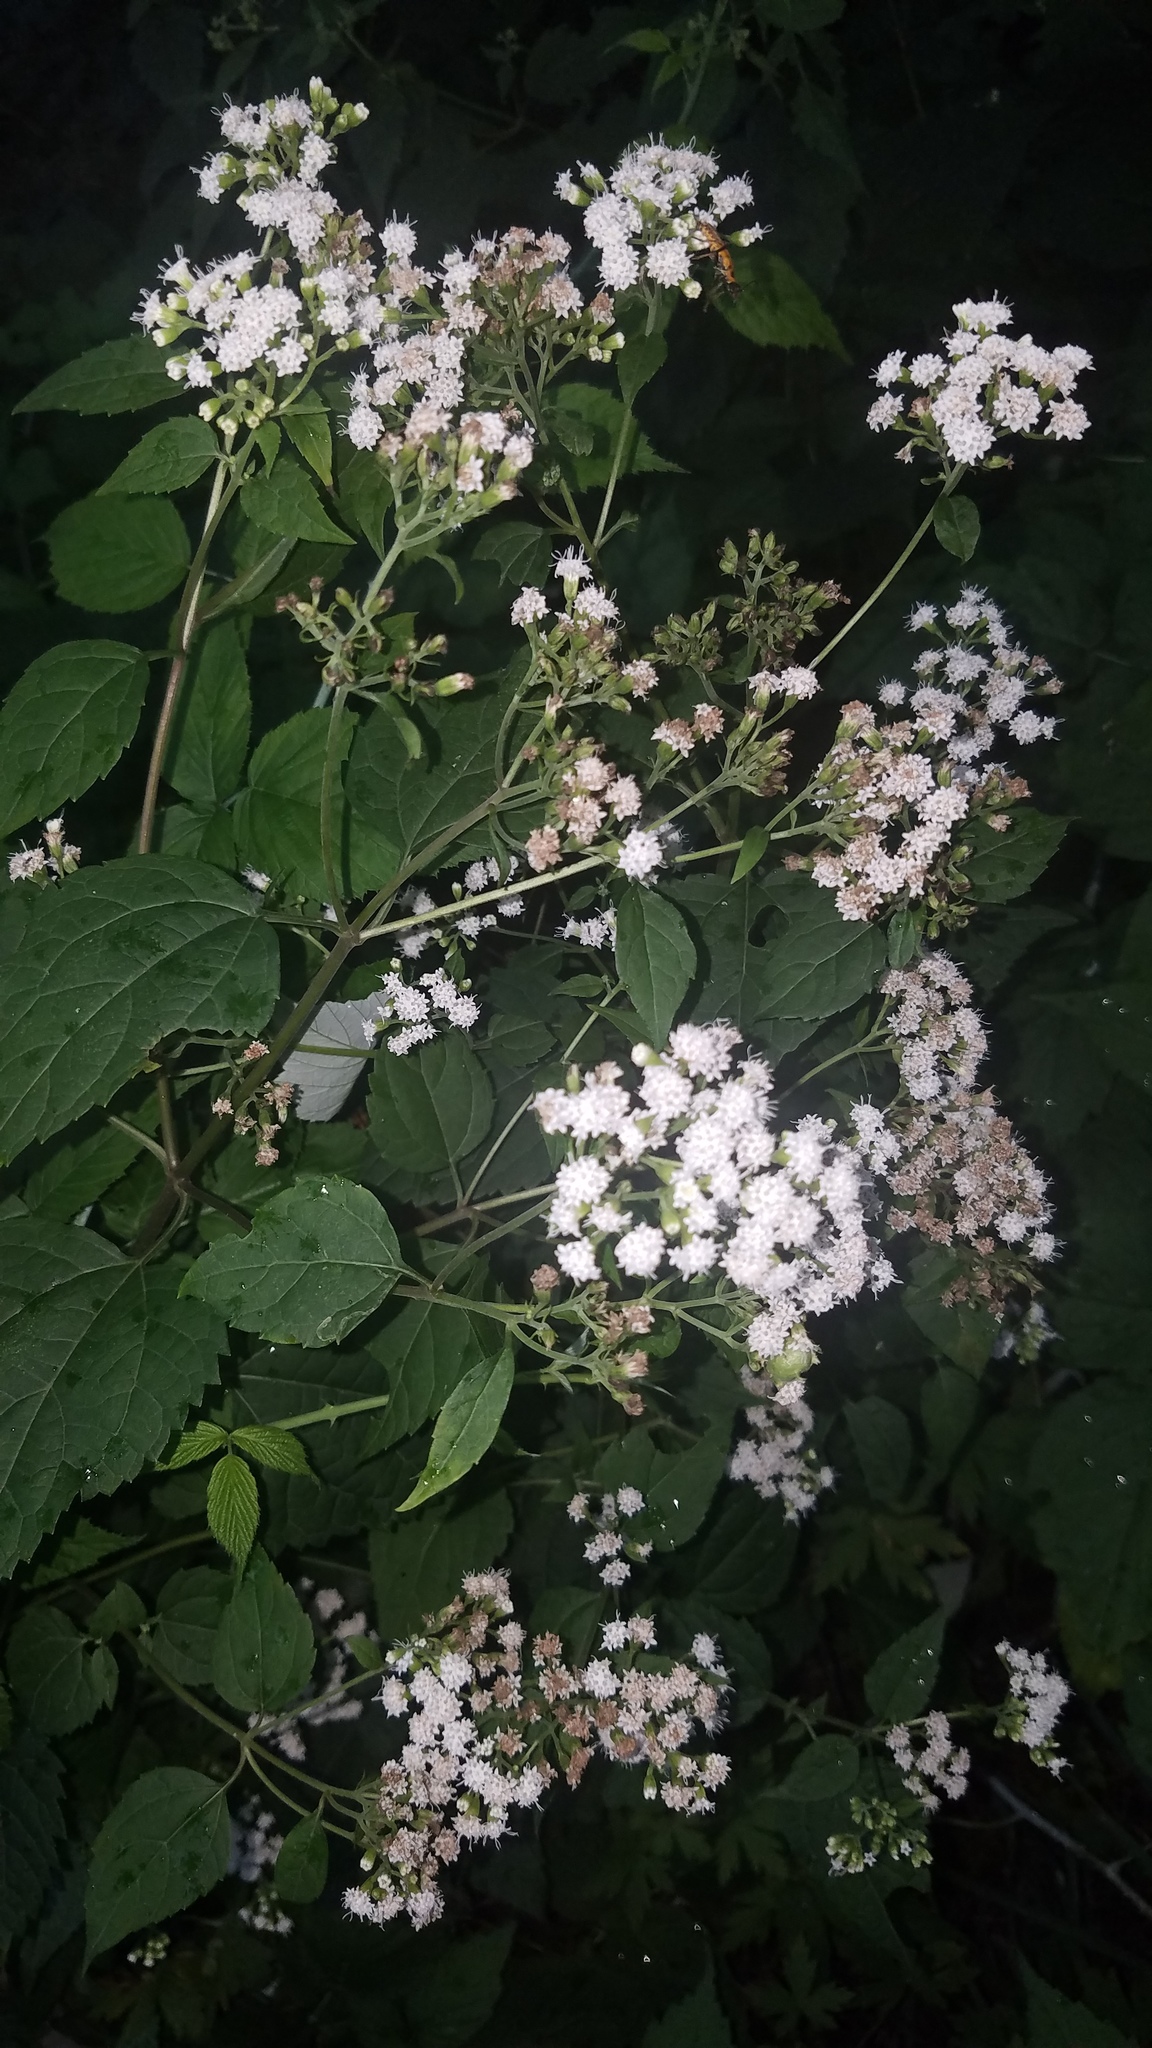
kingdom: Plantae
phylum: Tracheophyta
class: Magnoliopsida
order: Asterales
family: Asteraceae
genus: Ageratina
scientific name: Ageratina altissima
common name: White snakeroot
